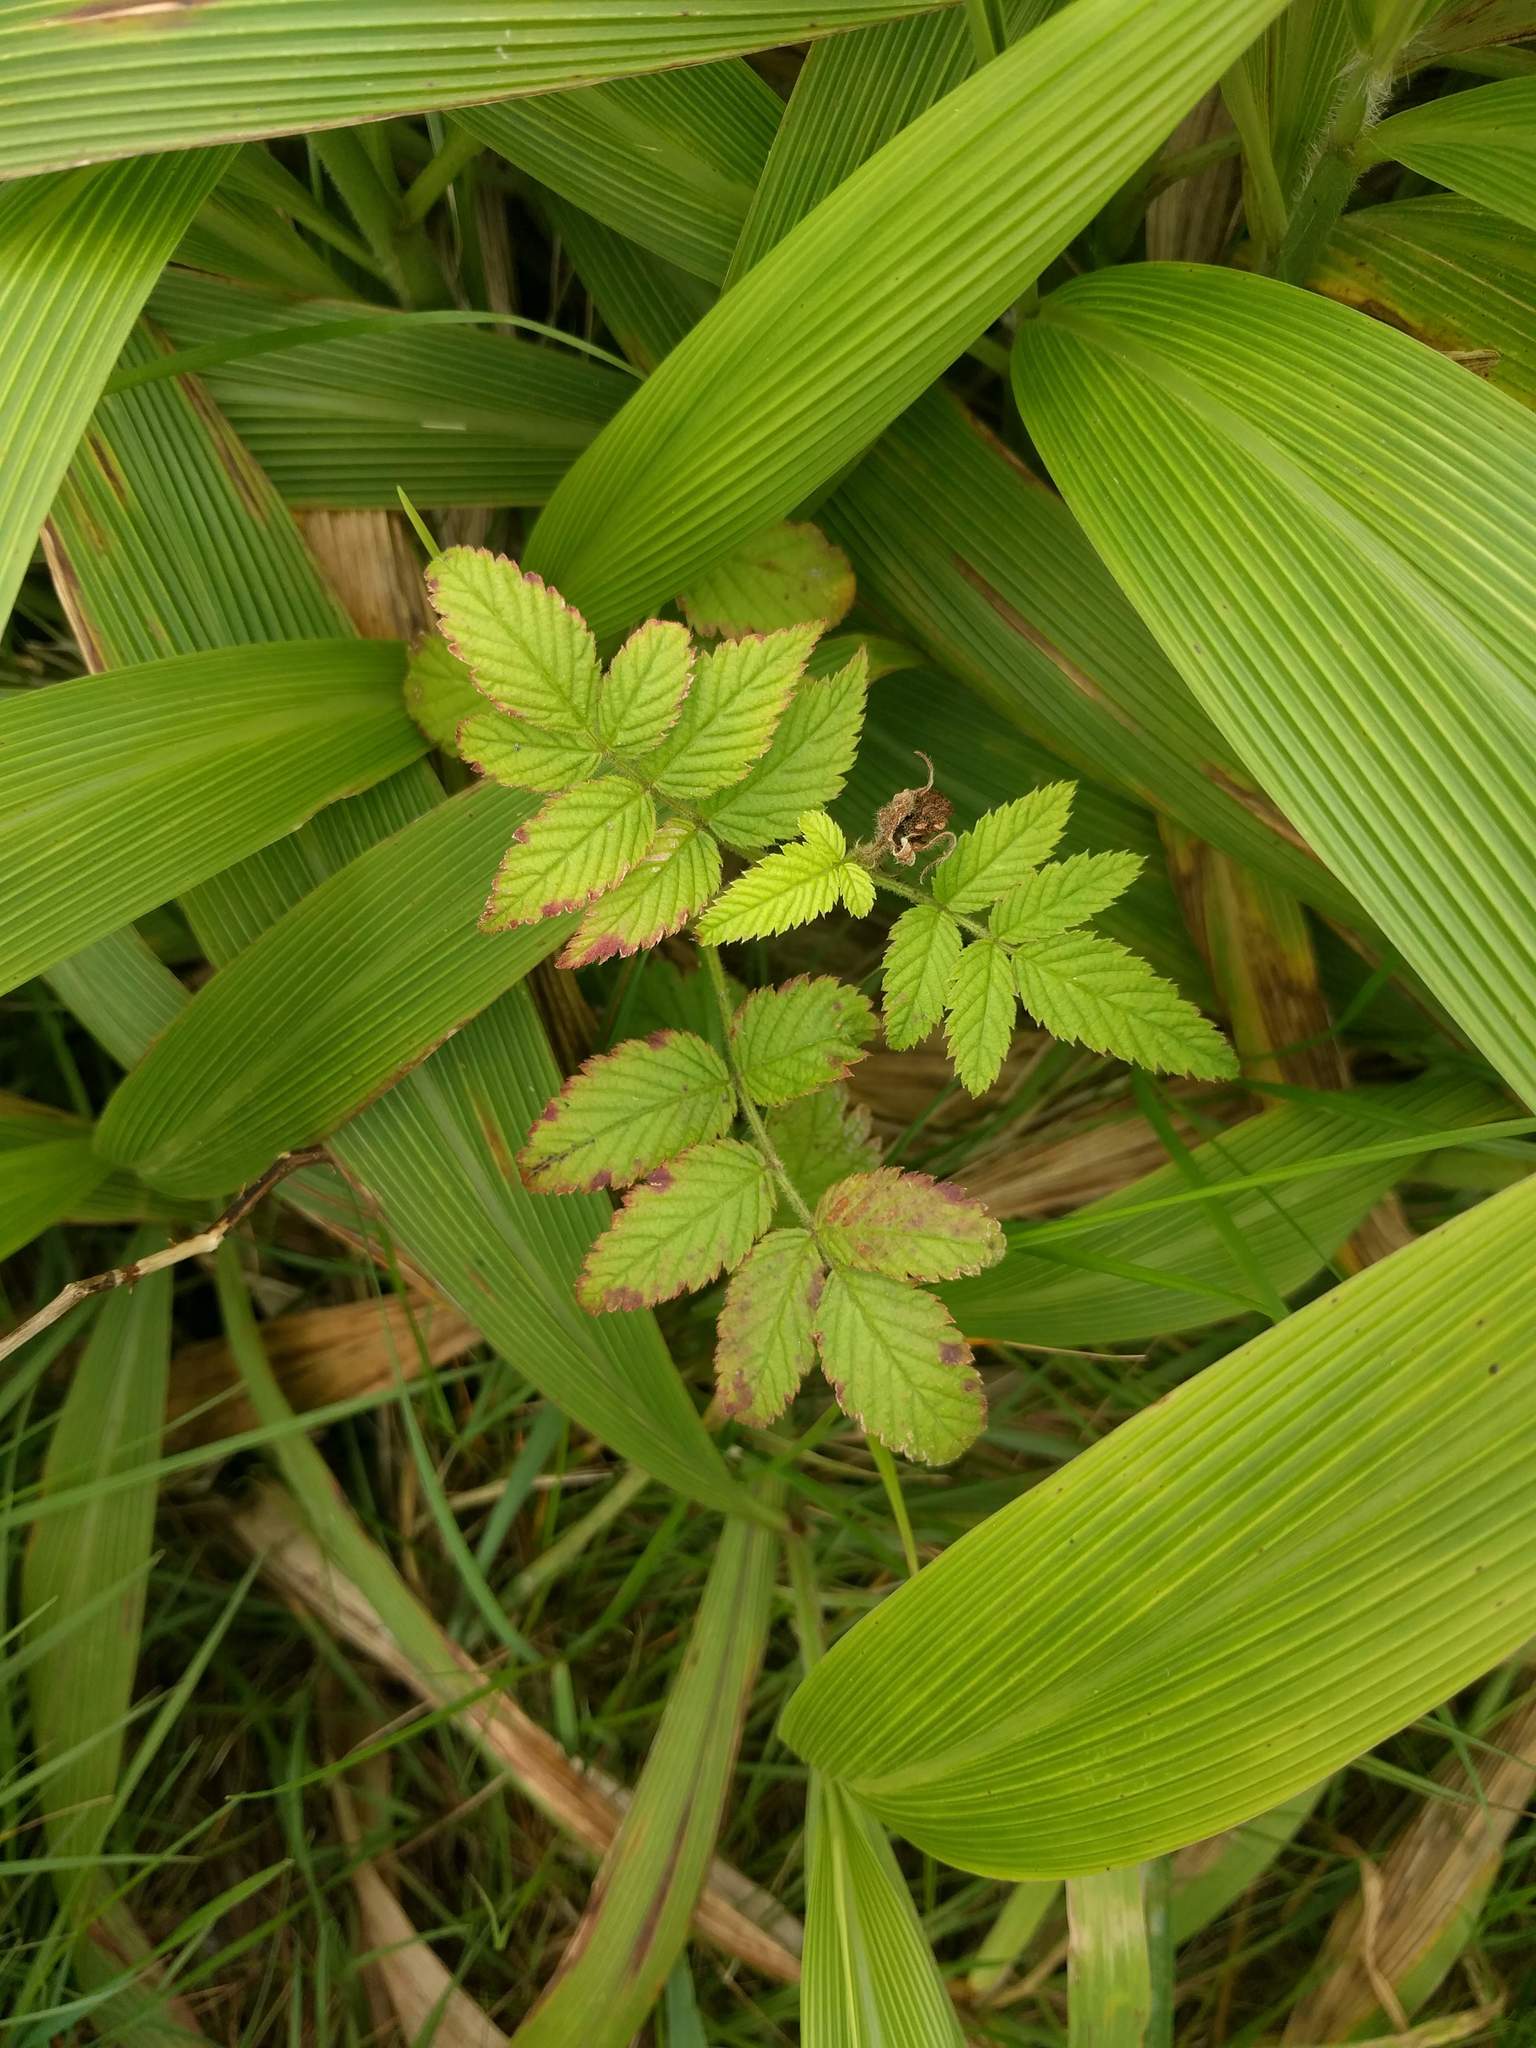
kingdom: Plantae
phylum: Tracheophyta
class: Magnoliopsida
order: Rosales
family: Rosaceae
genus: Rubus
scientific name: Rubus rosifolius
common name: Roseleaf raspberry
